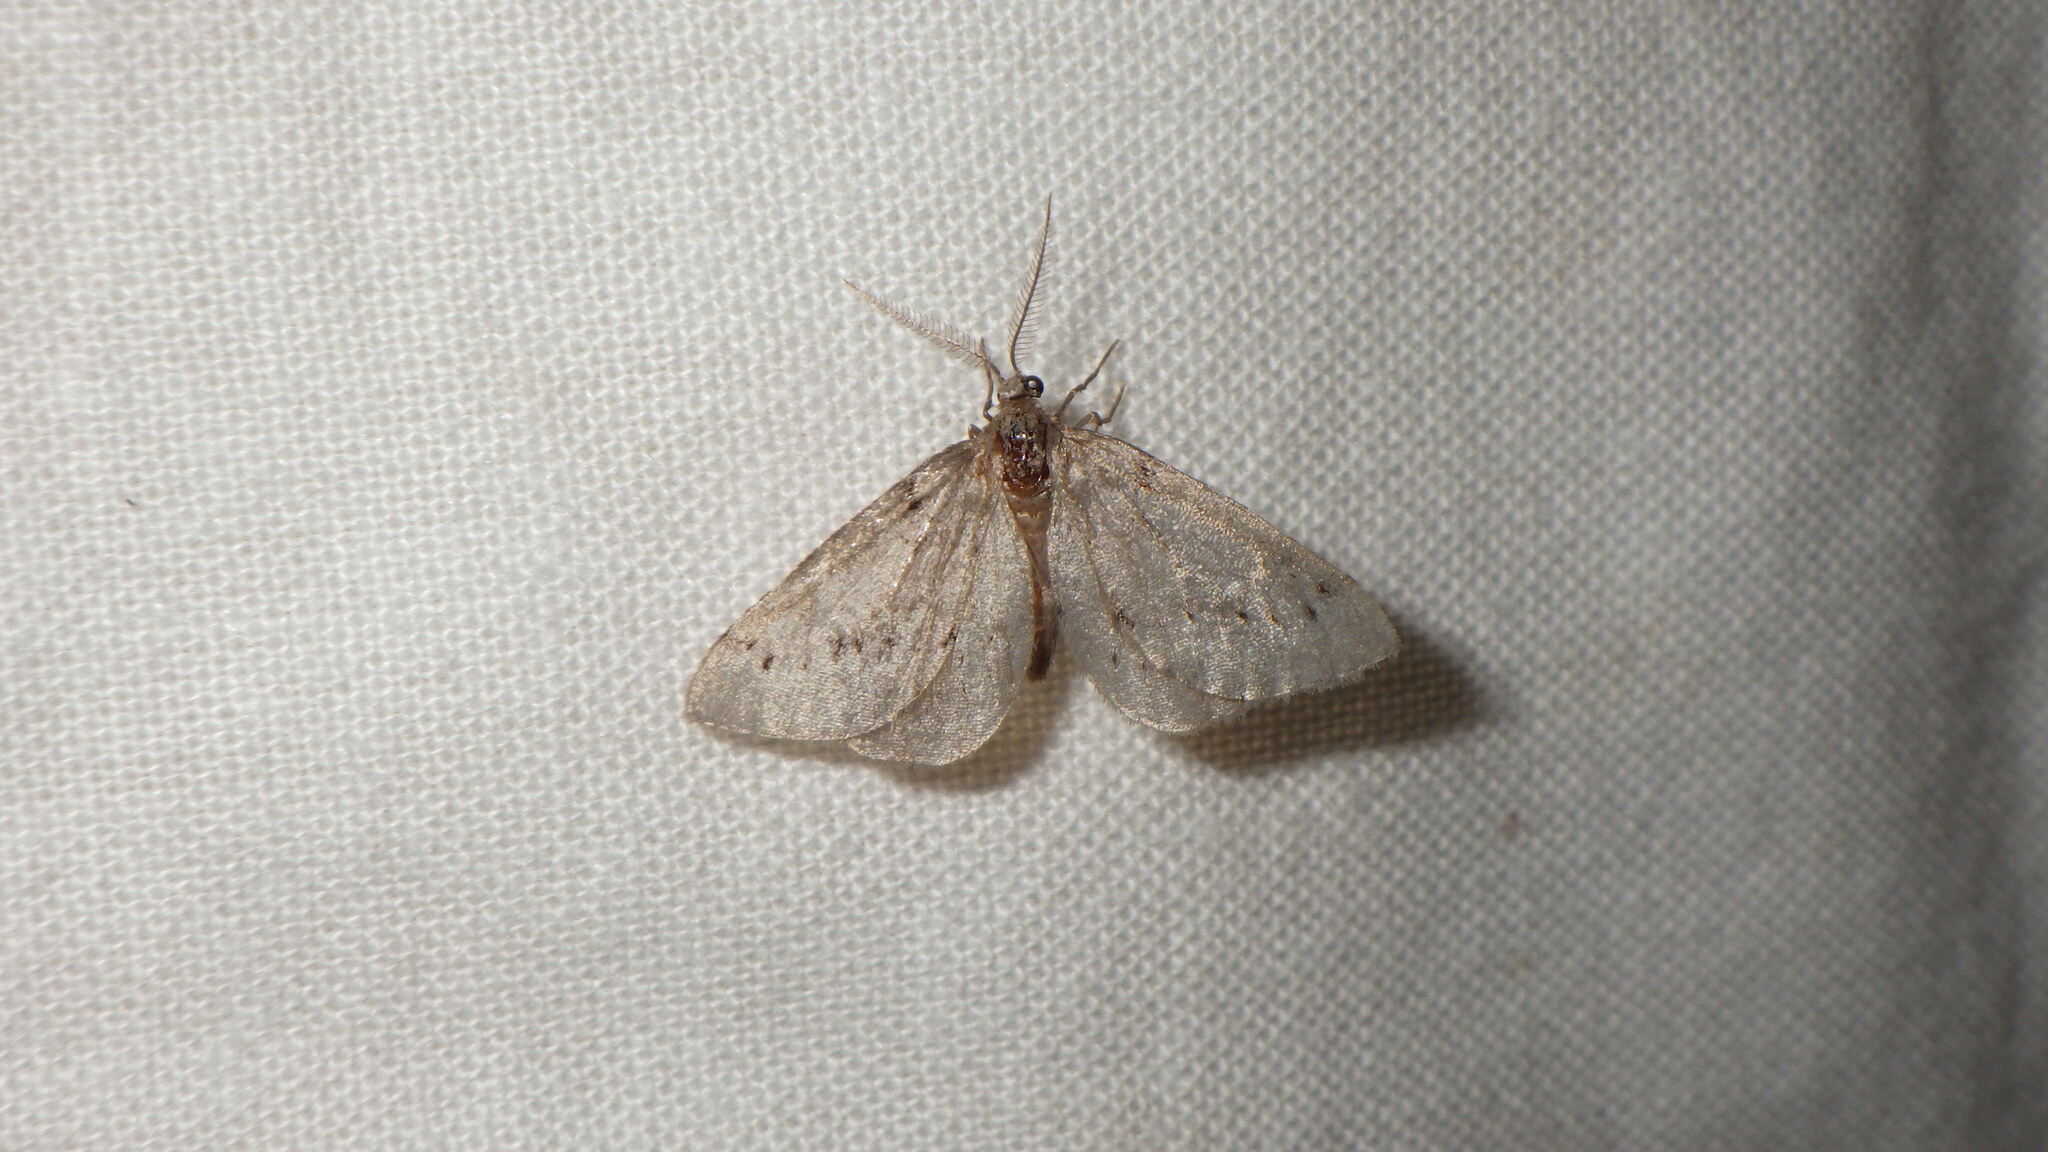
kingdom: Animalia
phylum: Arthropoda
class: Insecta
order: Lepidoptera
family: Geometridae
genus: Tephronia
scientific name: Tephronia oranaria
